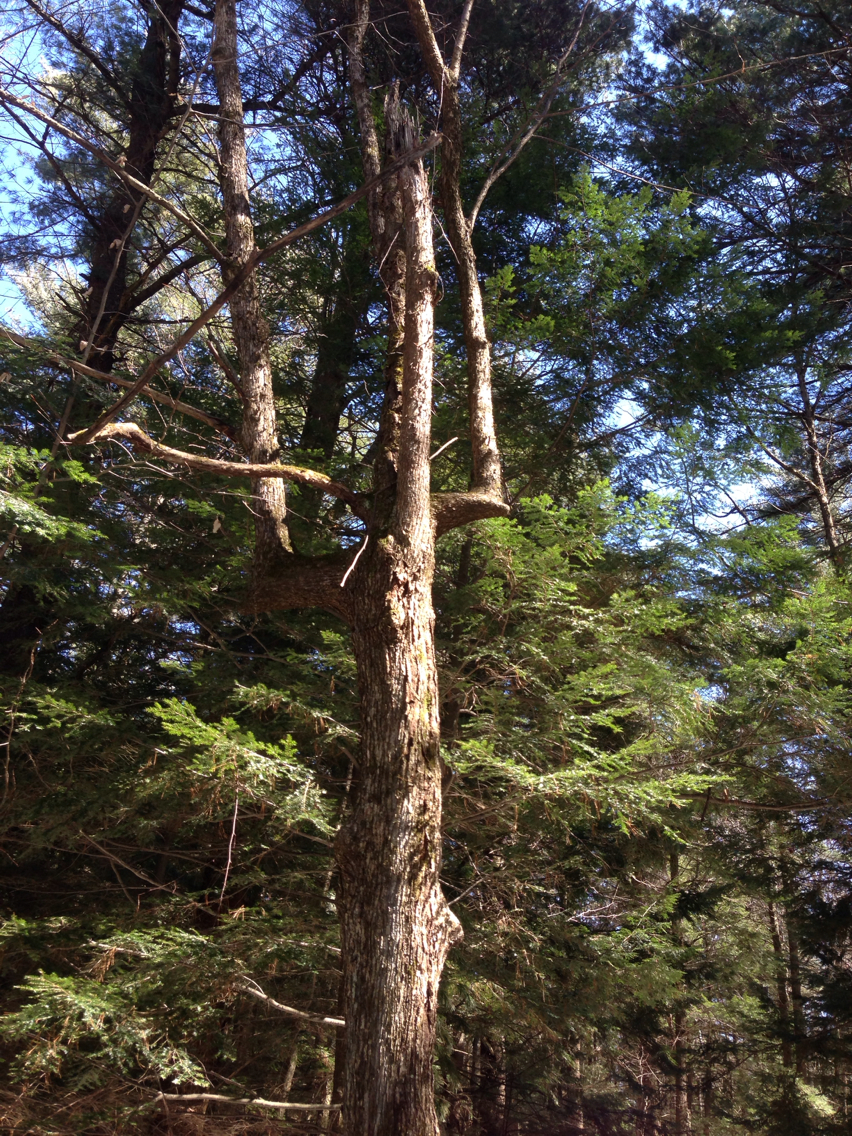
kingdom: Plantae
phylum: Tracheophyta
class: Magnoliopsida
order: Fagales
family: Betulaceae
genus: Ostrya
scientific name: Ostrya virginiana
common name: Ironwood
